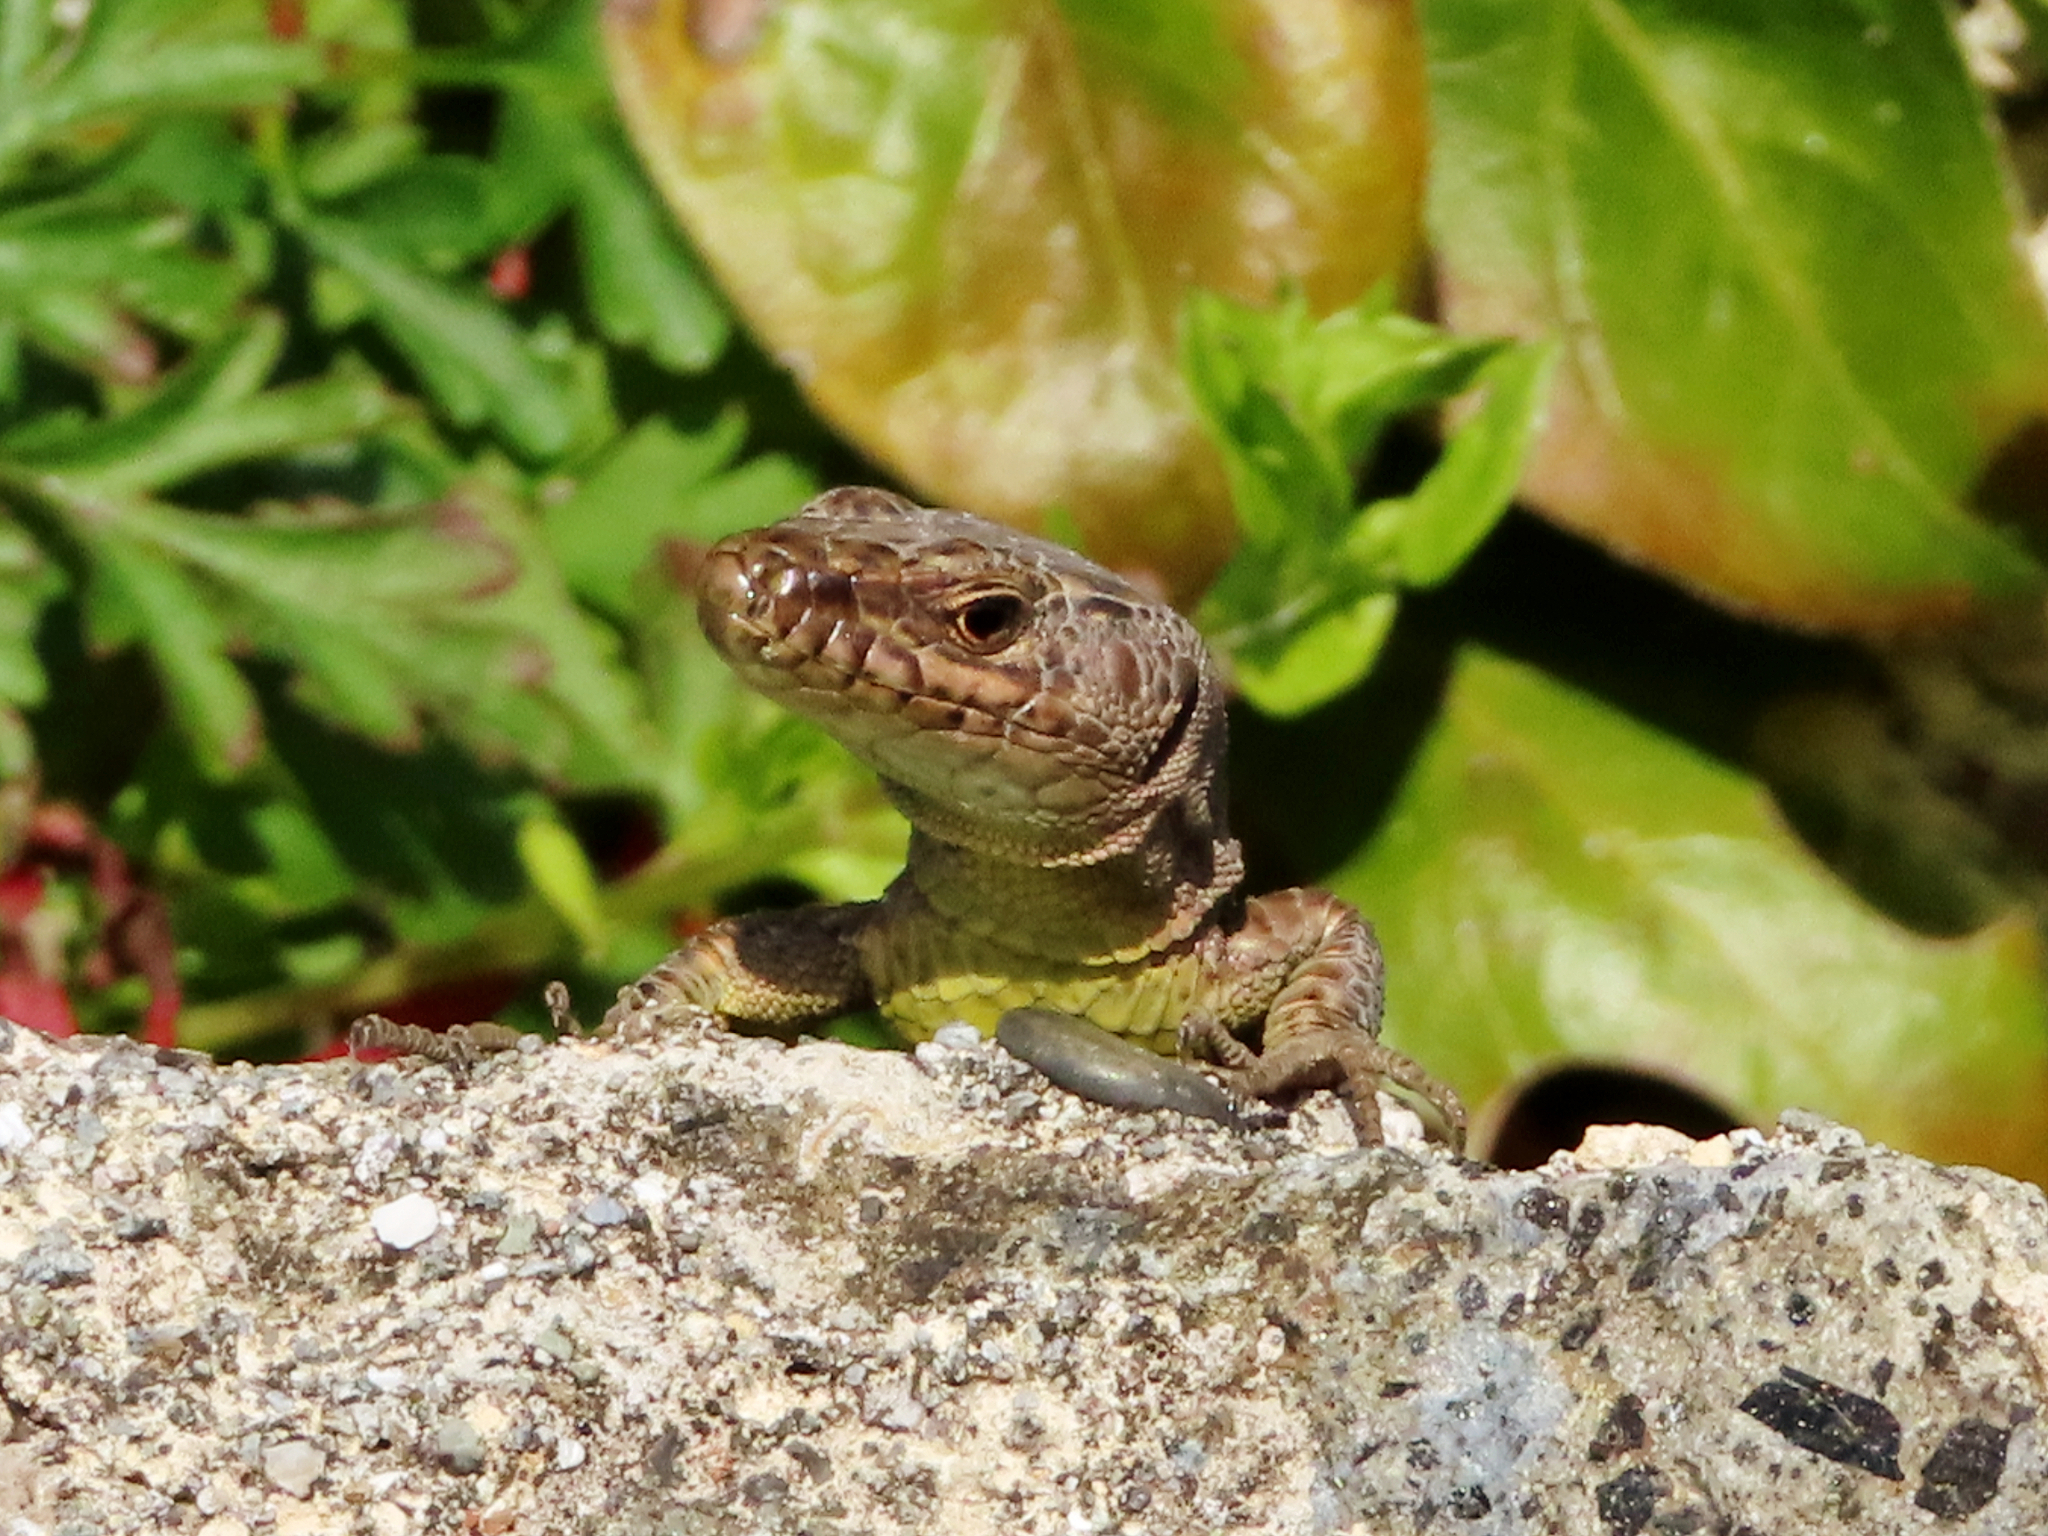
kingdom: Animalia
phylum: Chordata
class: Squamata
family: Lacertidae
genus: Darevskia
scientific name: Darevskia rudis
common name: Spiny-tailed lizard
